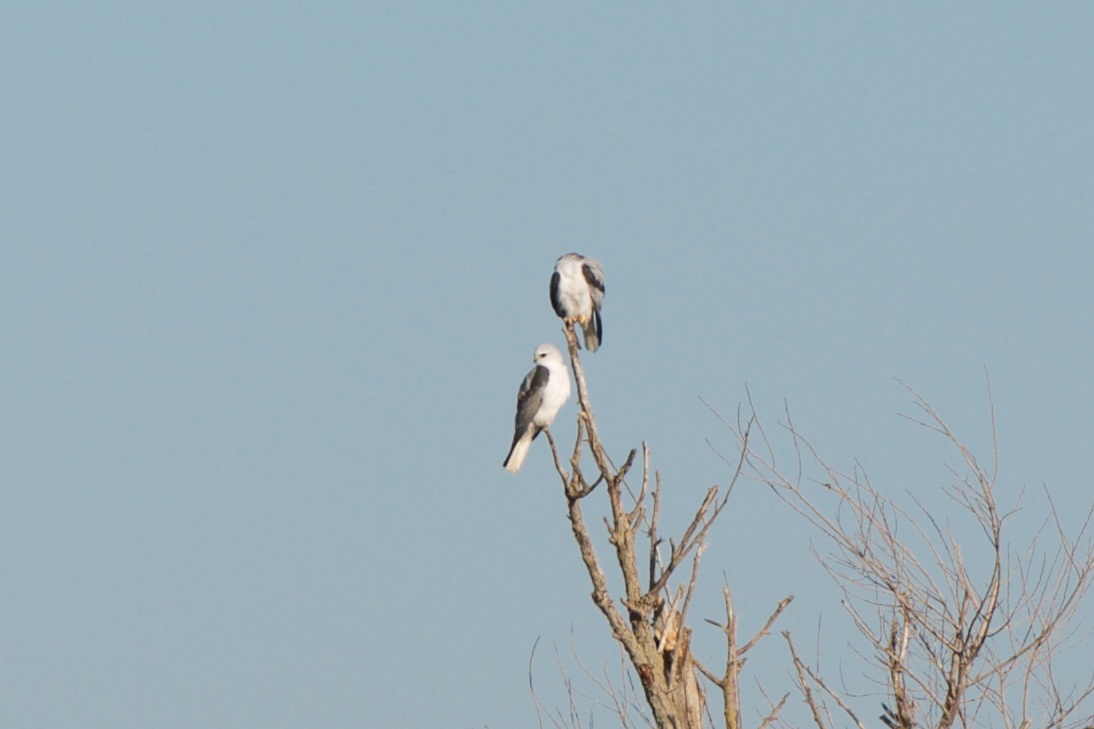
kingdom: Animalia
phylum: Chordata
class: Aves
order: Accipitriformes
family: Accipitridae
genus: Elanus
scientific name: Elanus leucurus
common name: White-tailed kite
